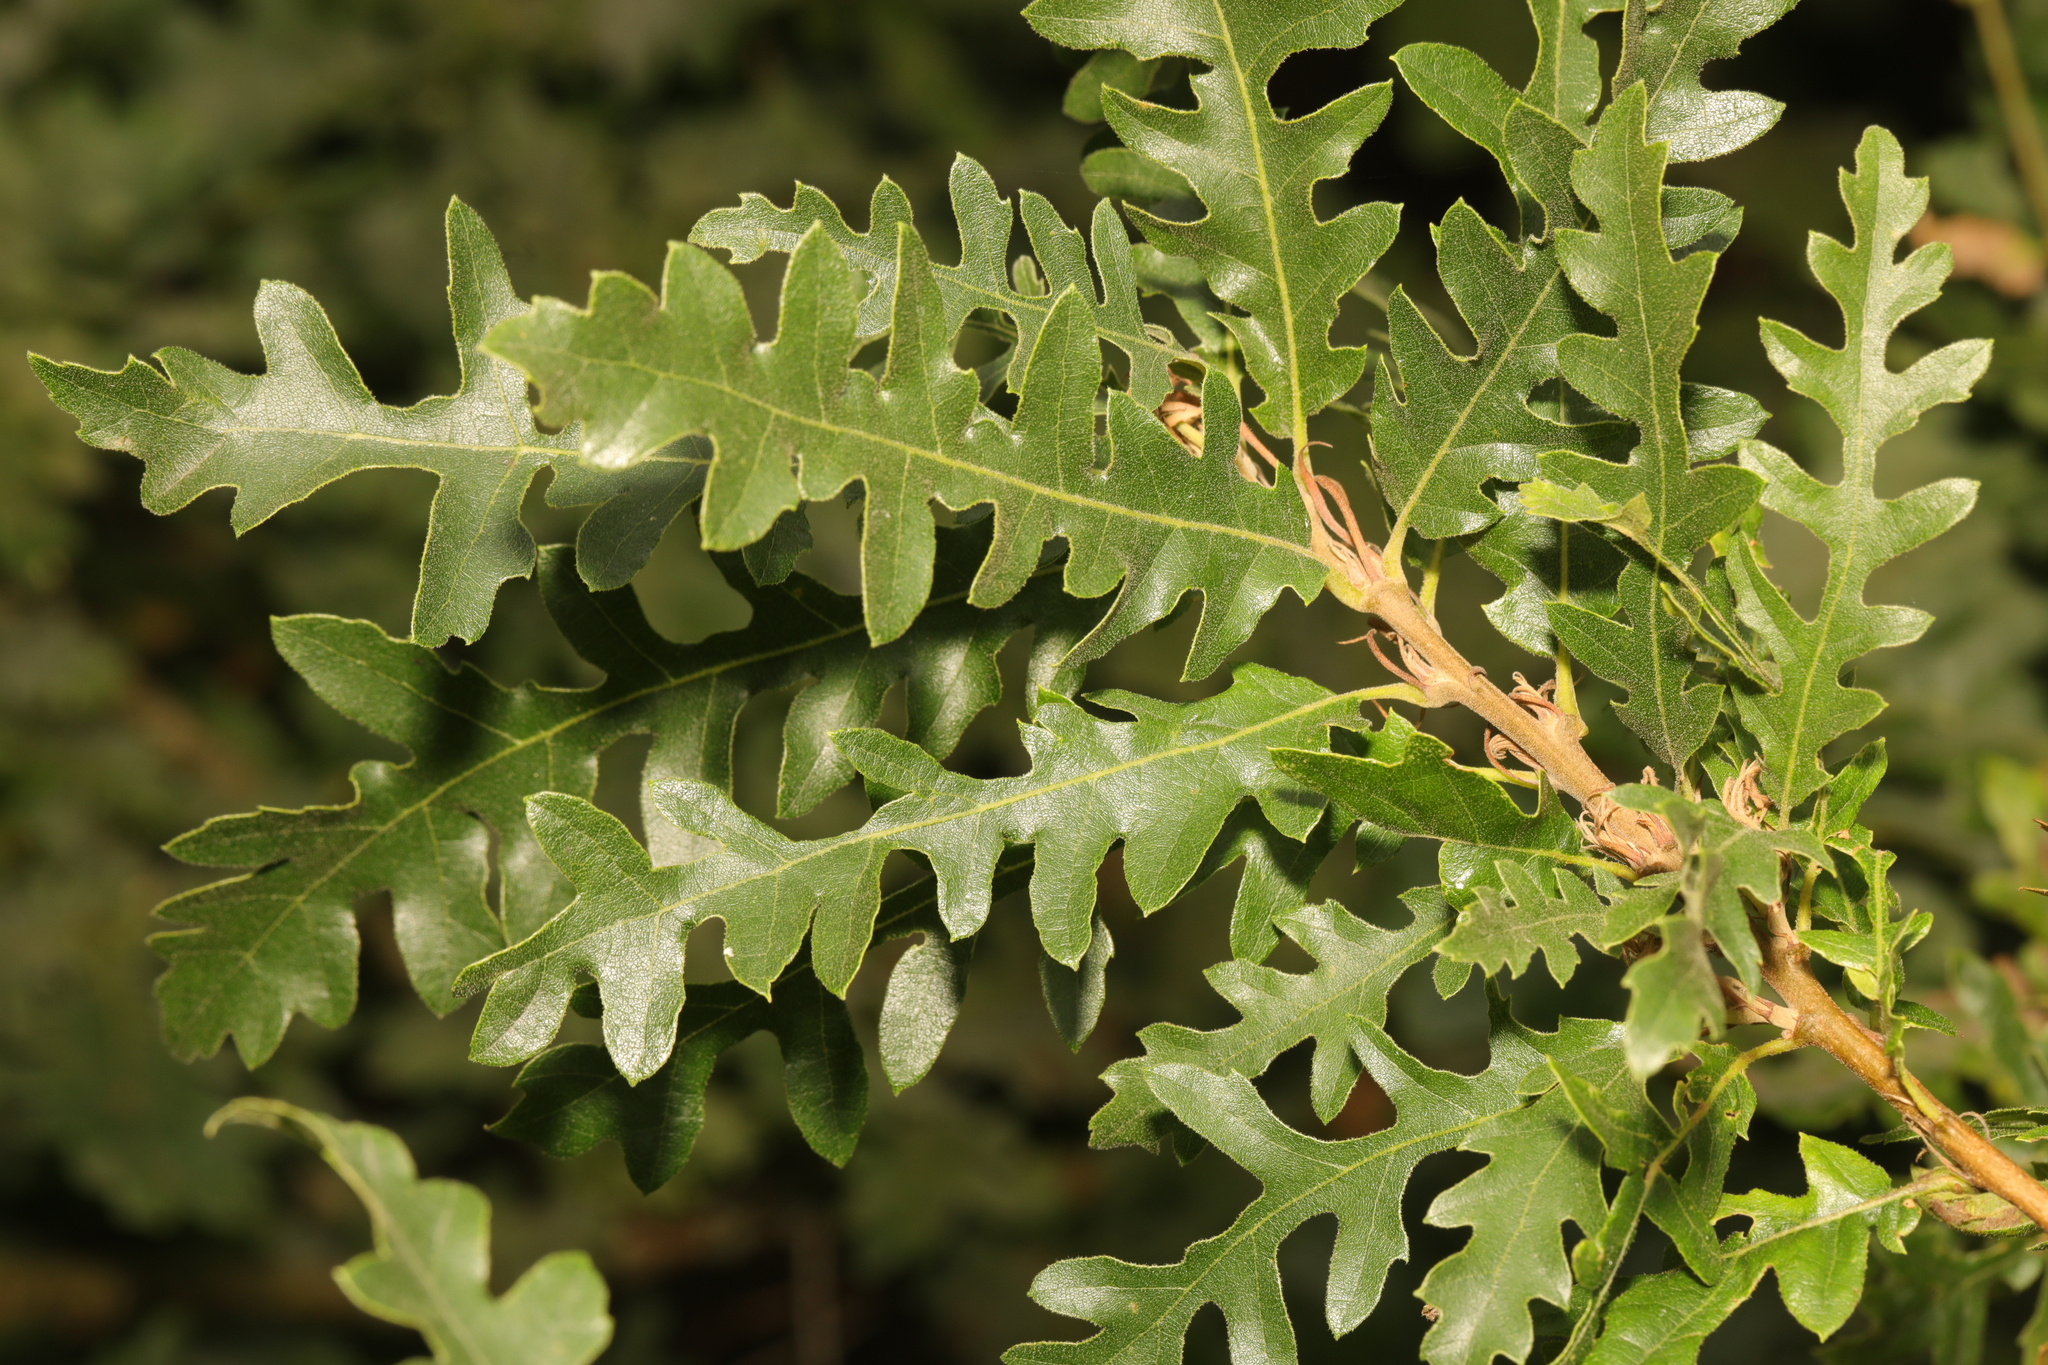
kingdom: Plantae
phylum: Tracheophyta
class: Magnoliopsida
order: Fagales
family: Fagaceae
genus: Quercus
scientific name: Quercus cerris
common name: Turkey oak
